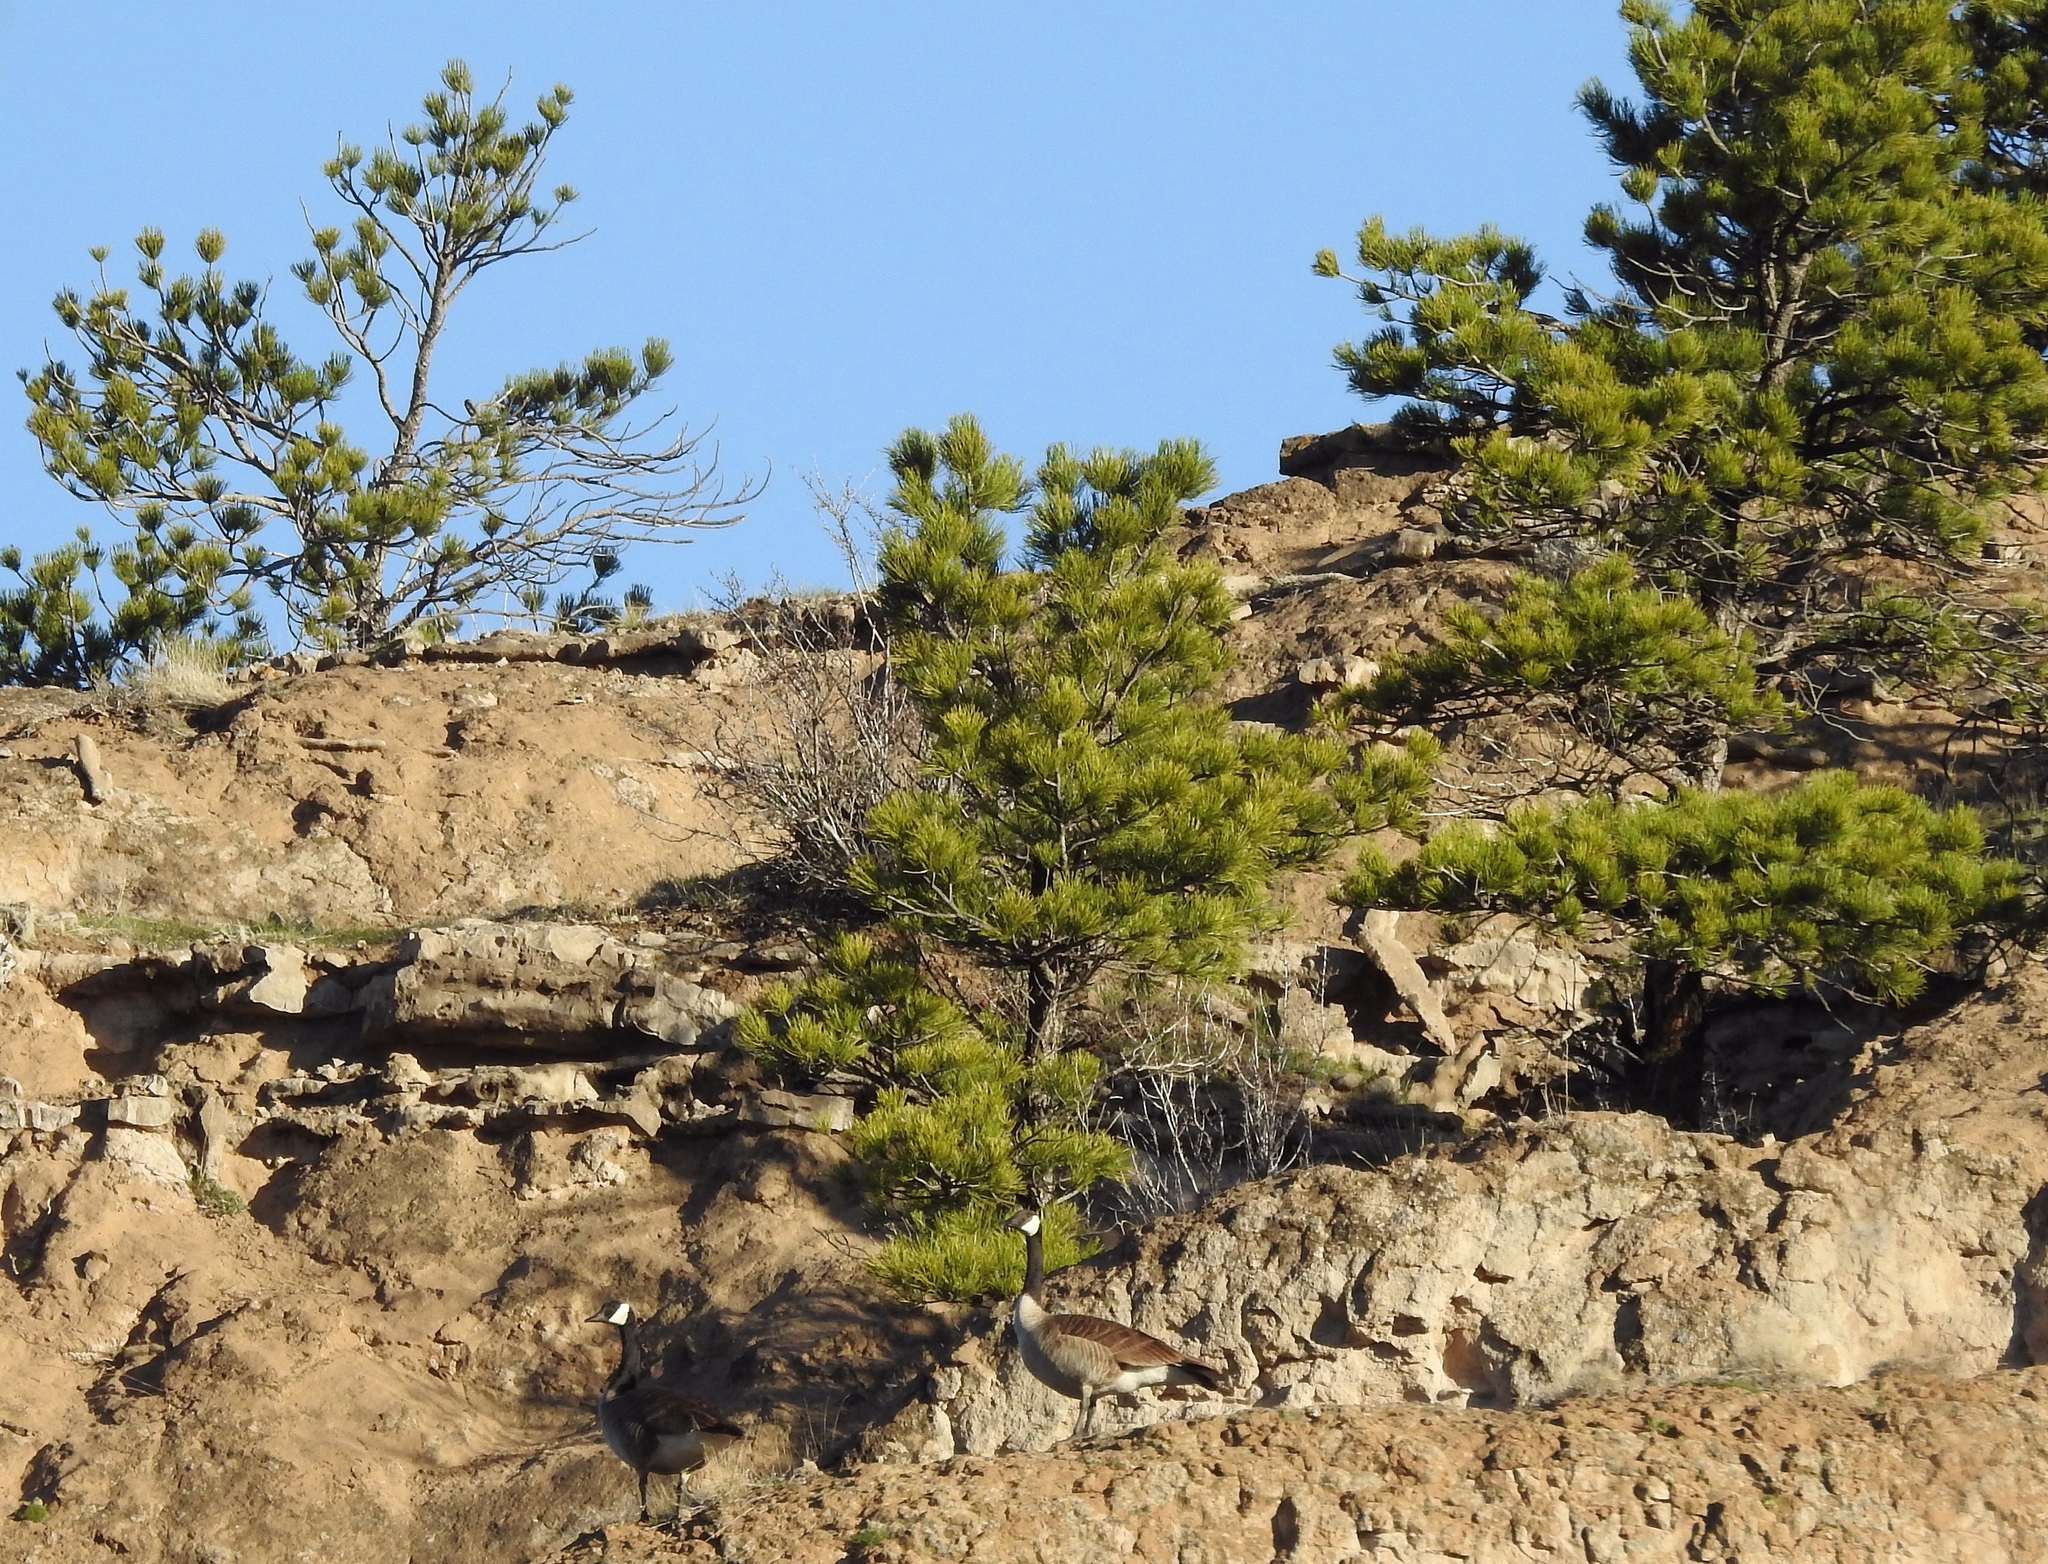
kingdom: Animalia
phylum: Chordata
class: Aves
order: Anseriformes
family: Anatidae
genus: Branta
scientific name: Branta canadensis
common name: Canada goose
